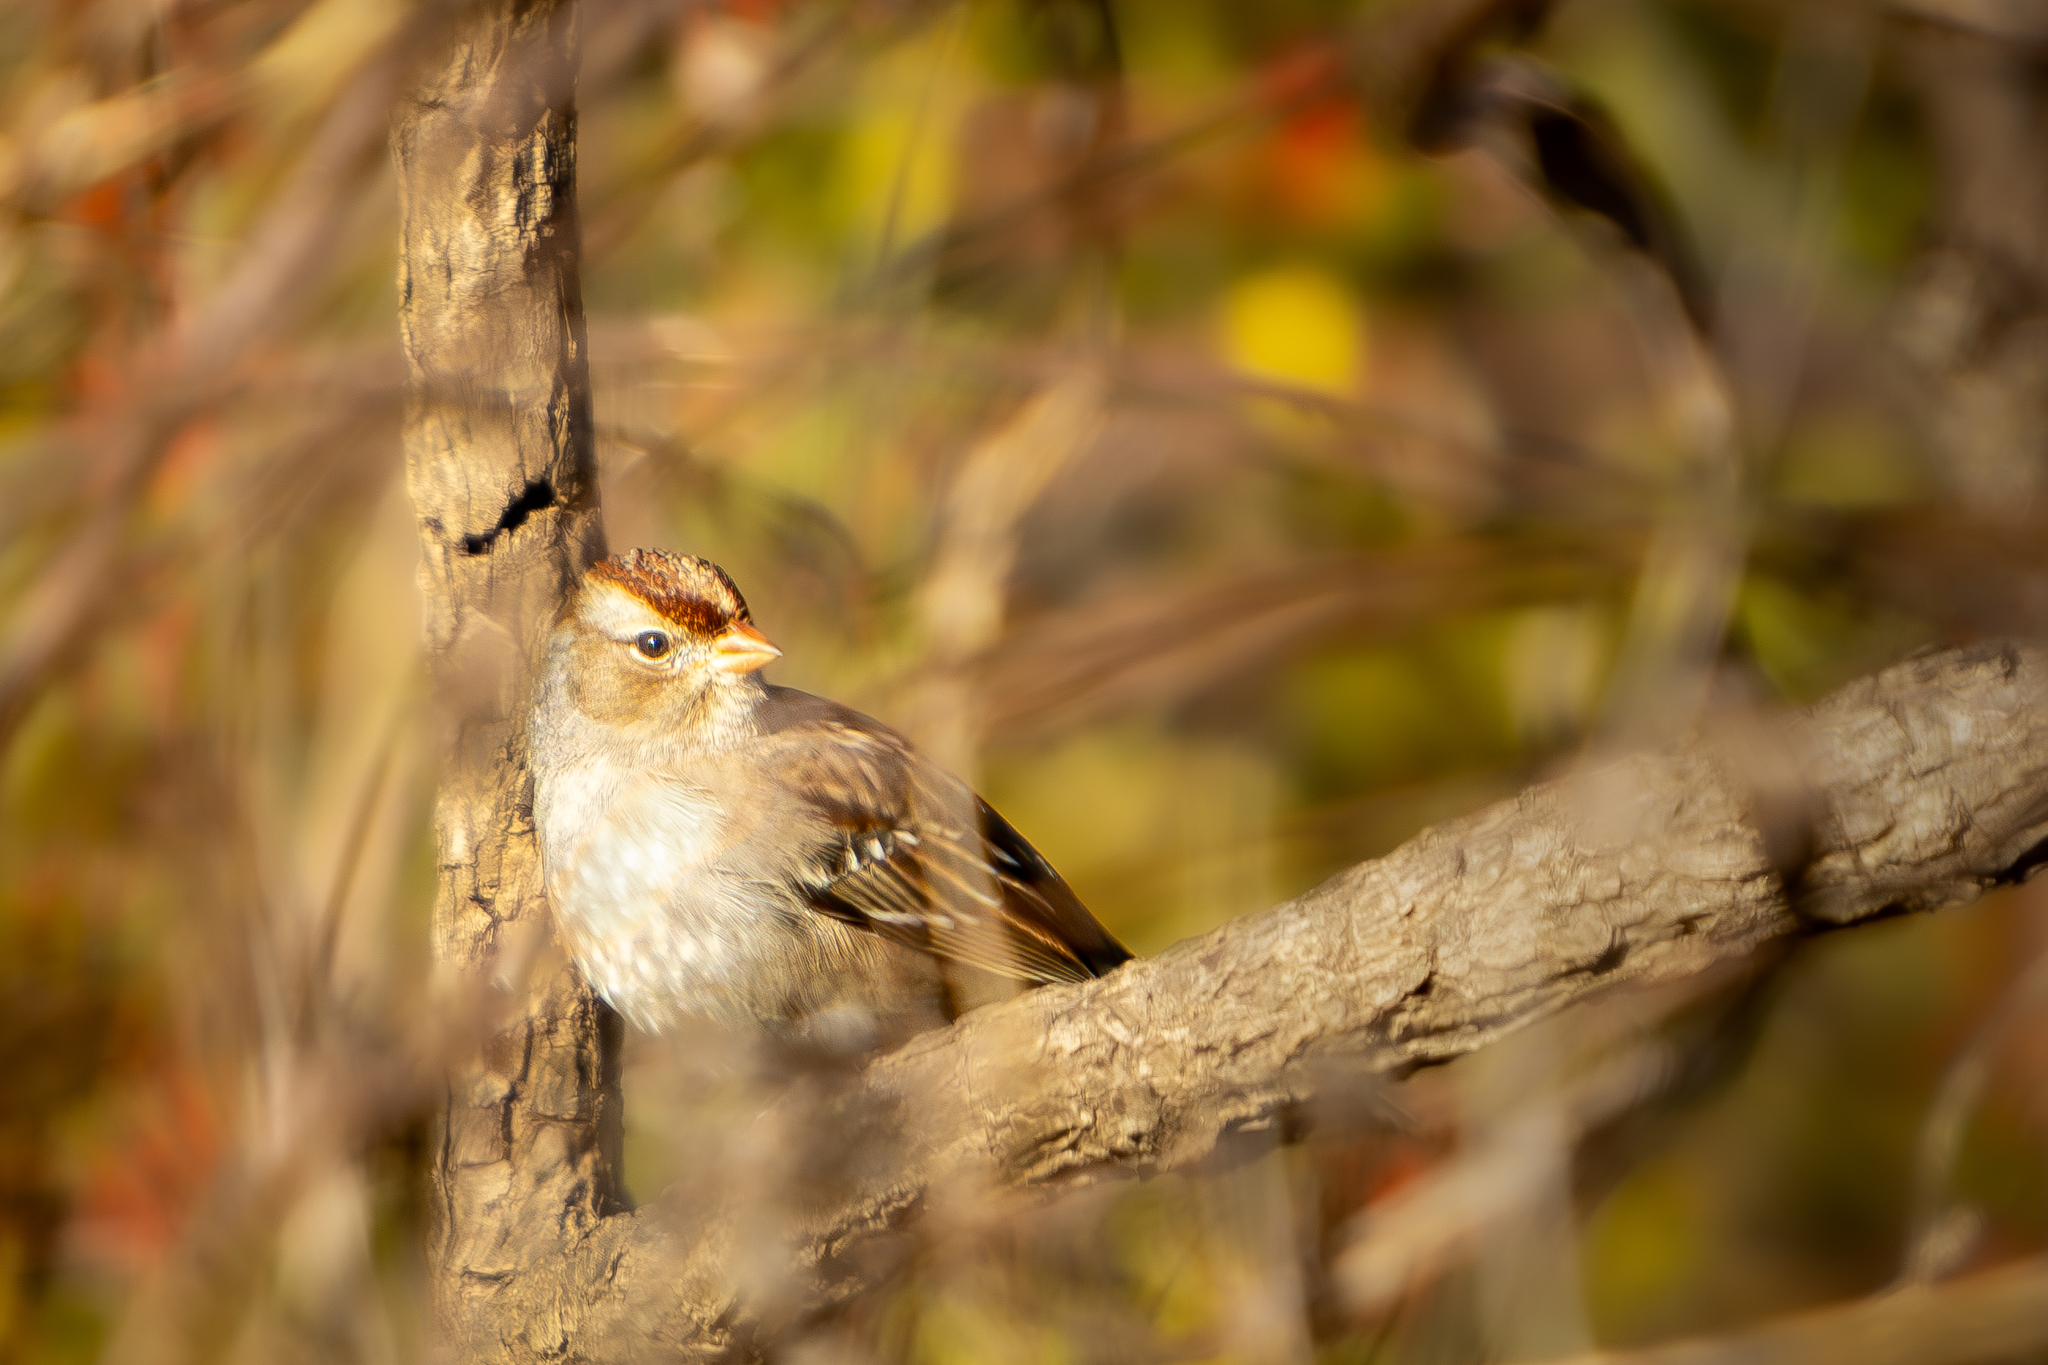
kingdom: Animalia
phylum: Chordata
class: Aves
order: Passeriformes
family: Passerellidae
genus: Zonotrichia
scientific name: Zonotrichia leucophrys
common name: White-crowned sparrow
